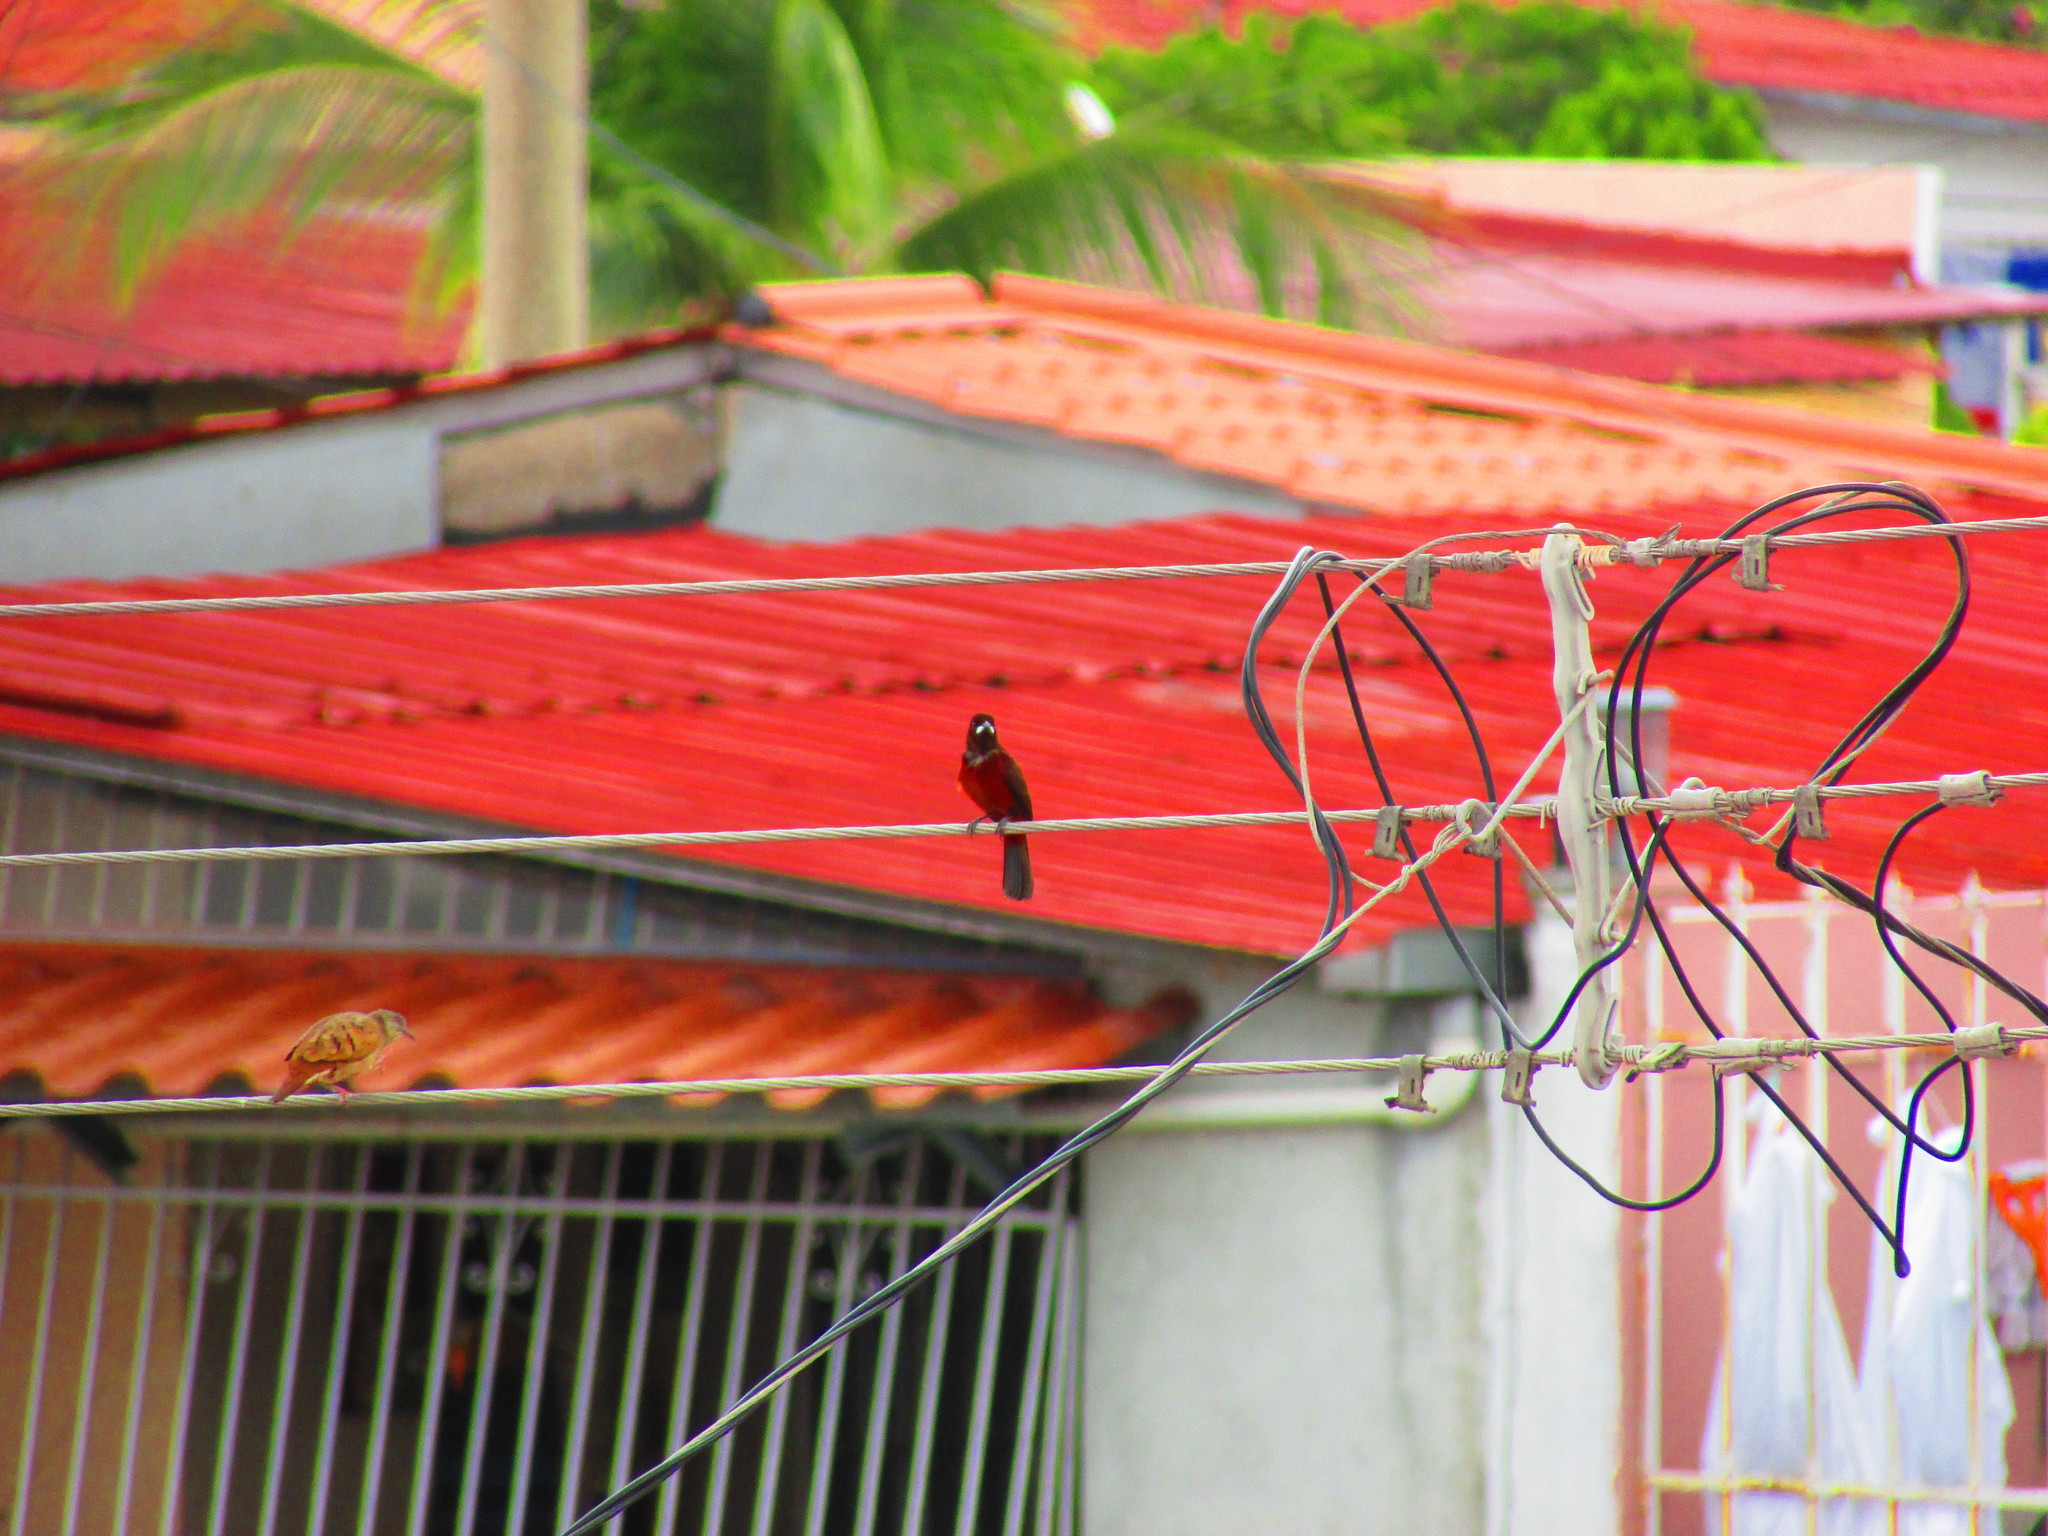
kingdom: Animalia
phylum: Chordata
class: Aves
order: Passeriformes
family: Thraupidae
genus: Ramphocelus
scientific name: Ramphocelus dimidiatus
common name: Crimson-backed tanager
